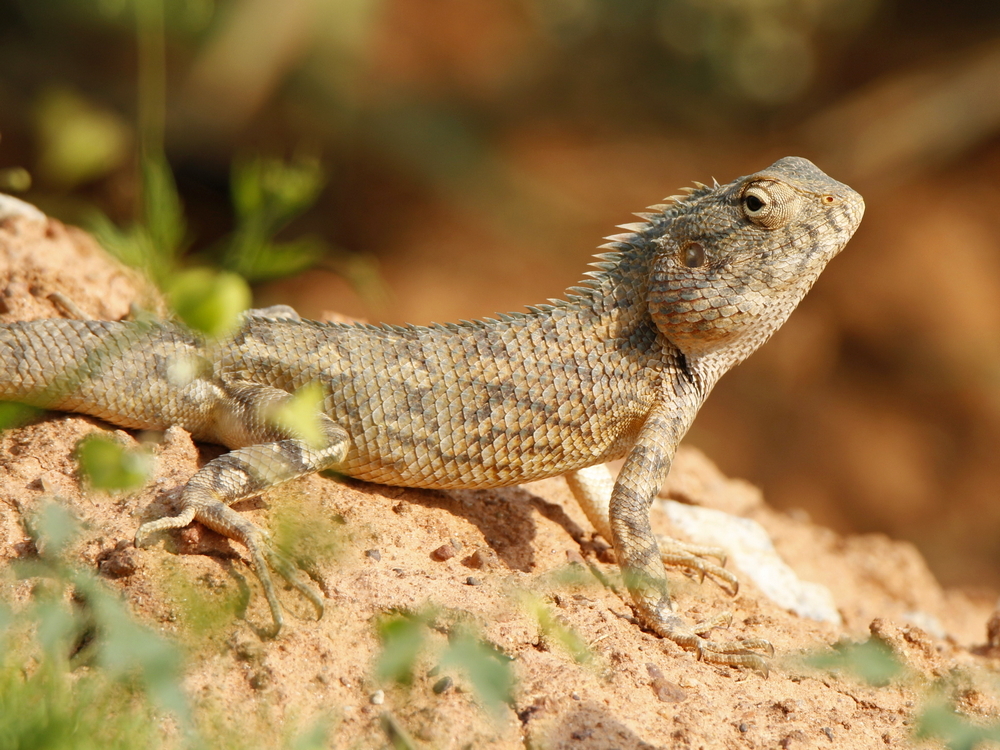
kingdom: Animalia
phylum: Chordata
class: Squamata
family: Agamidae
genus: Calotes
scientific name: Calotes versicolor
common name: Oriental garden lizard
